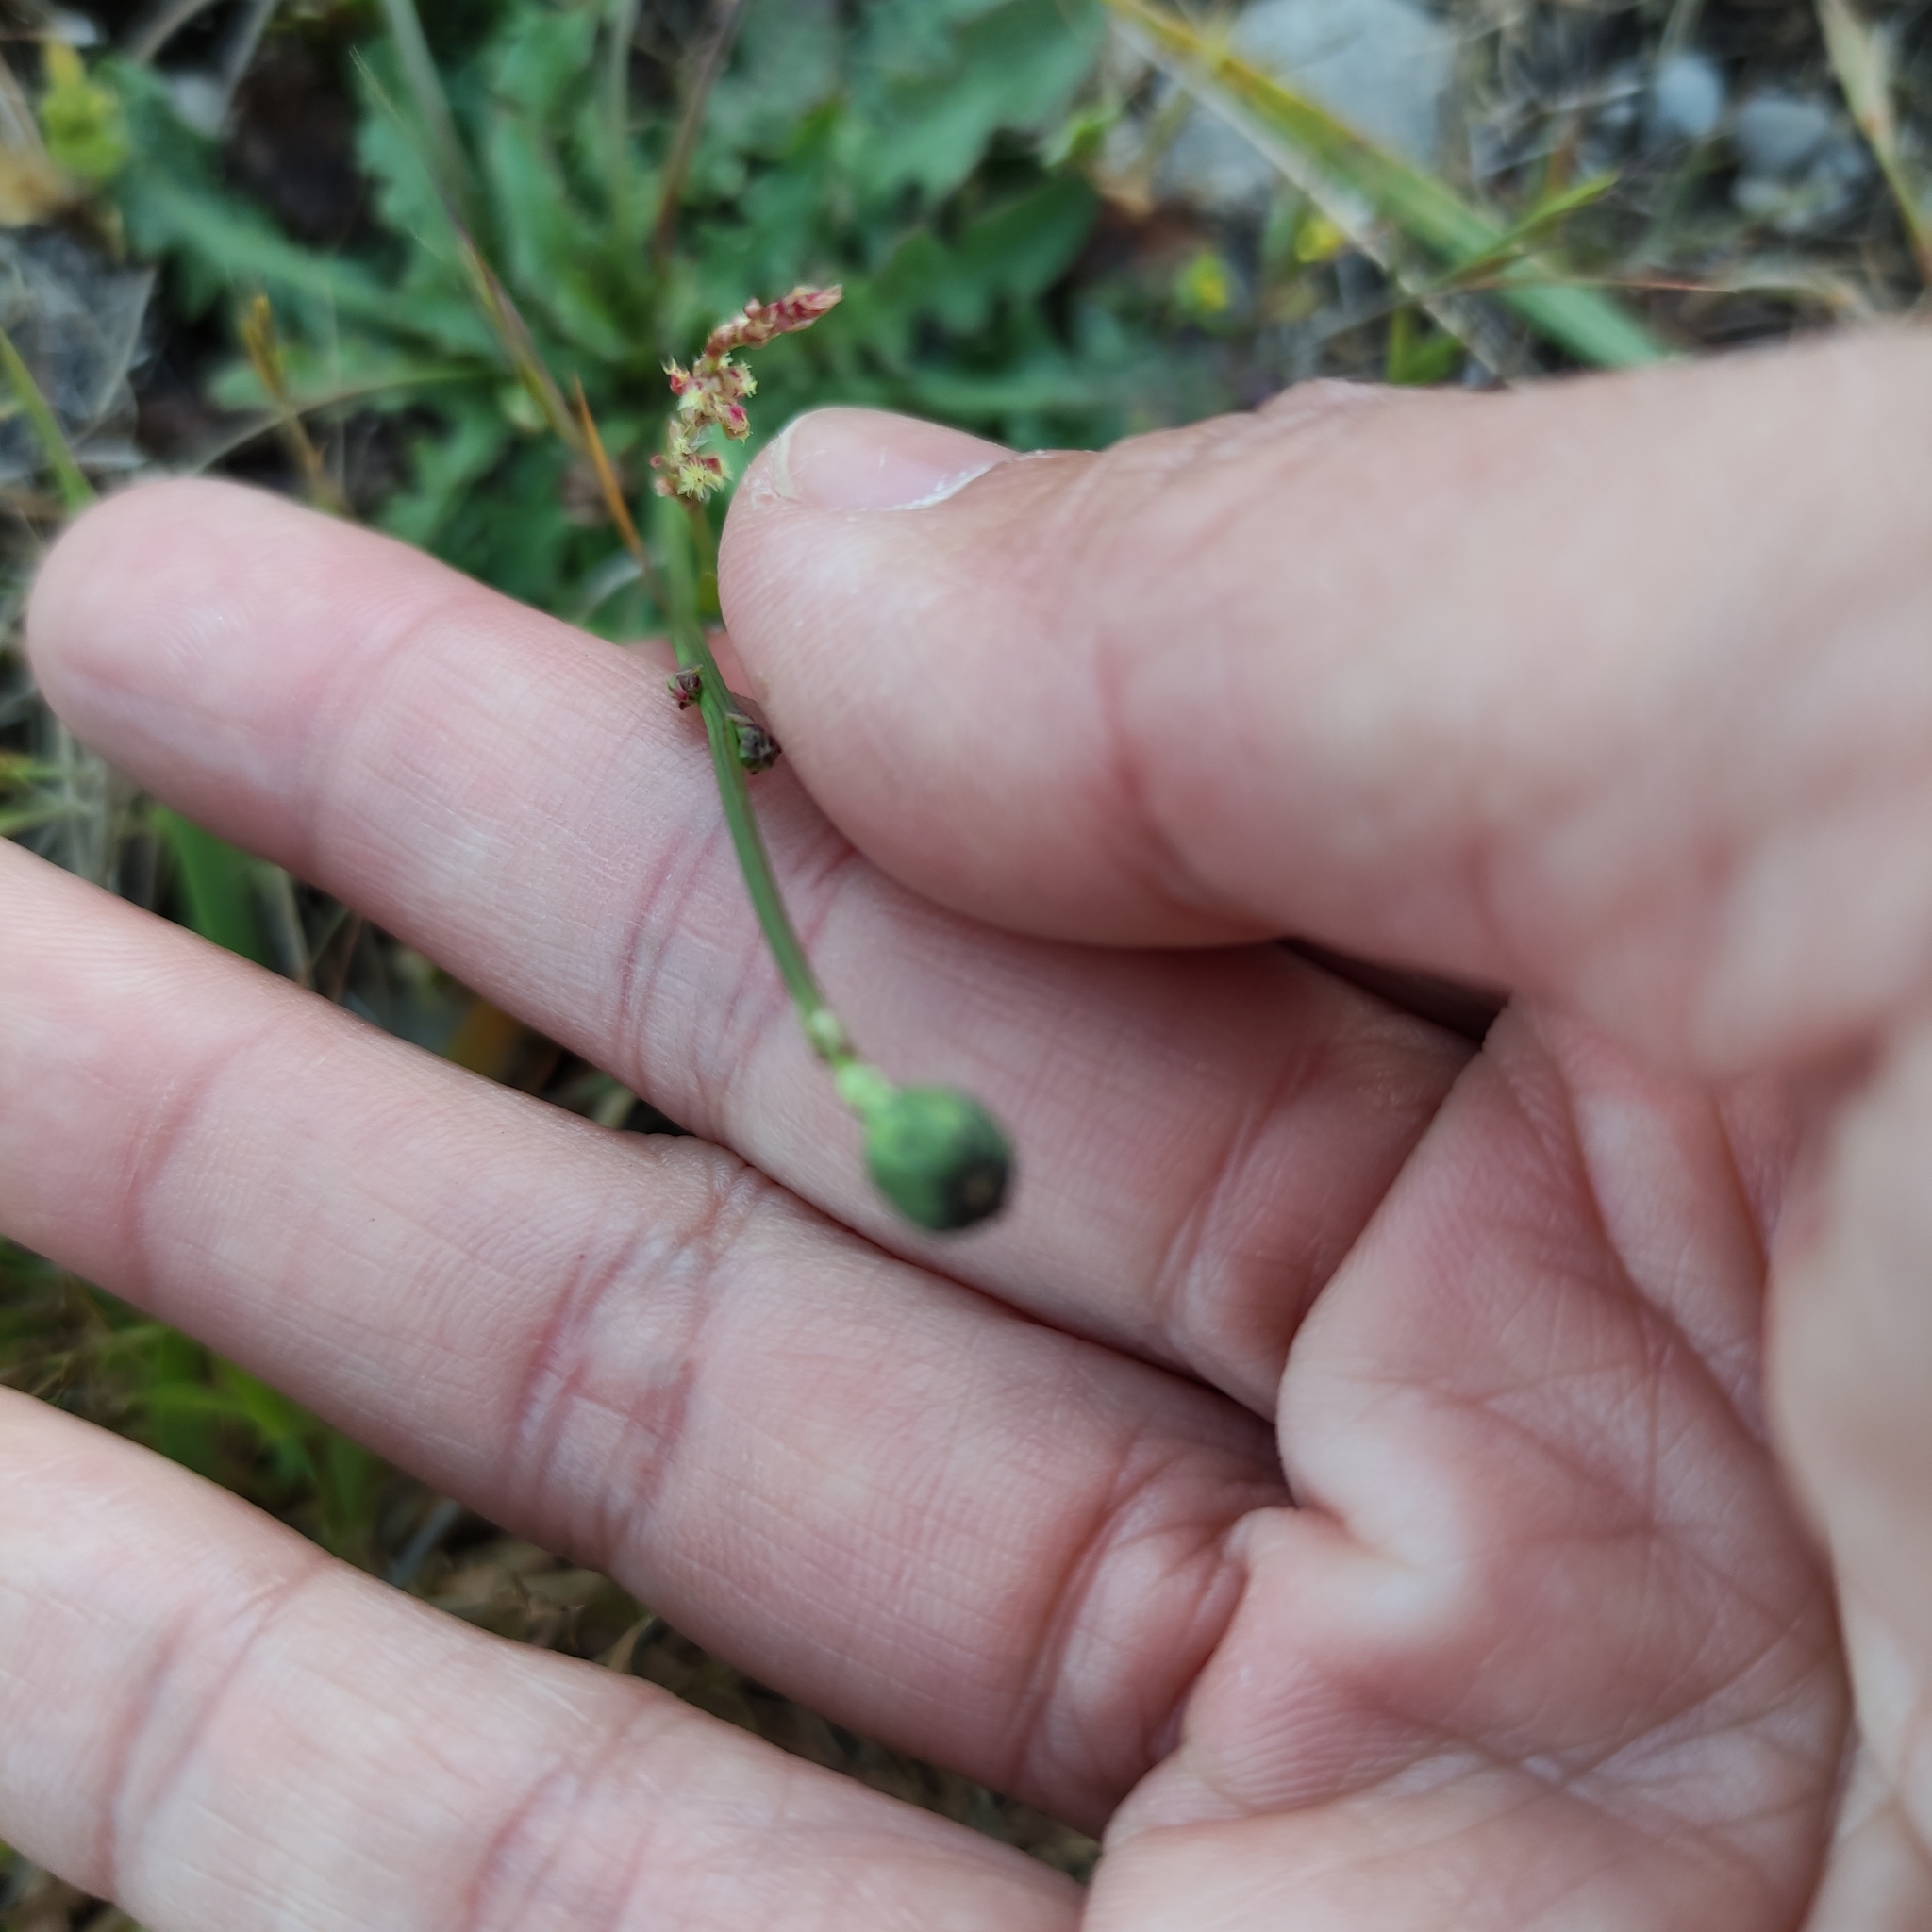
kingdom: Plantae
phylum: Tracheophyta
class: Magnoliopsida
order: Asterales
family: Asteraceae
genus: Hypochaeris
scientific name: Hypochaeris radicata
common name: Flatweed
